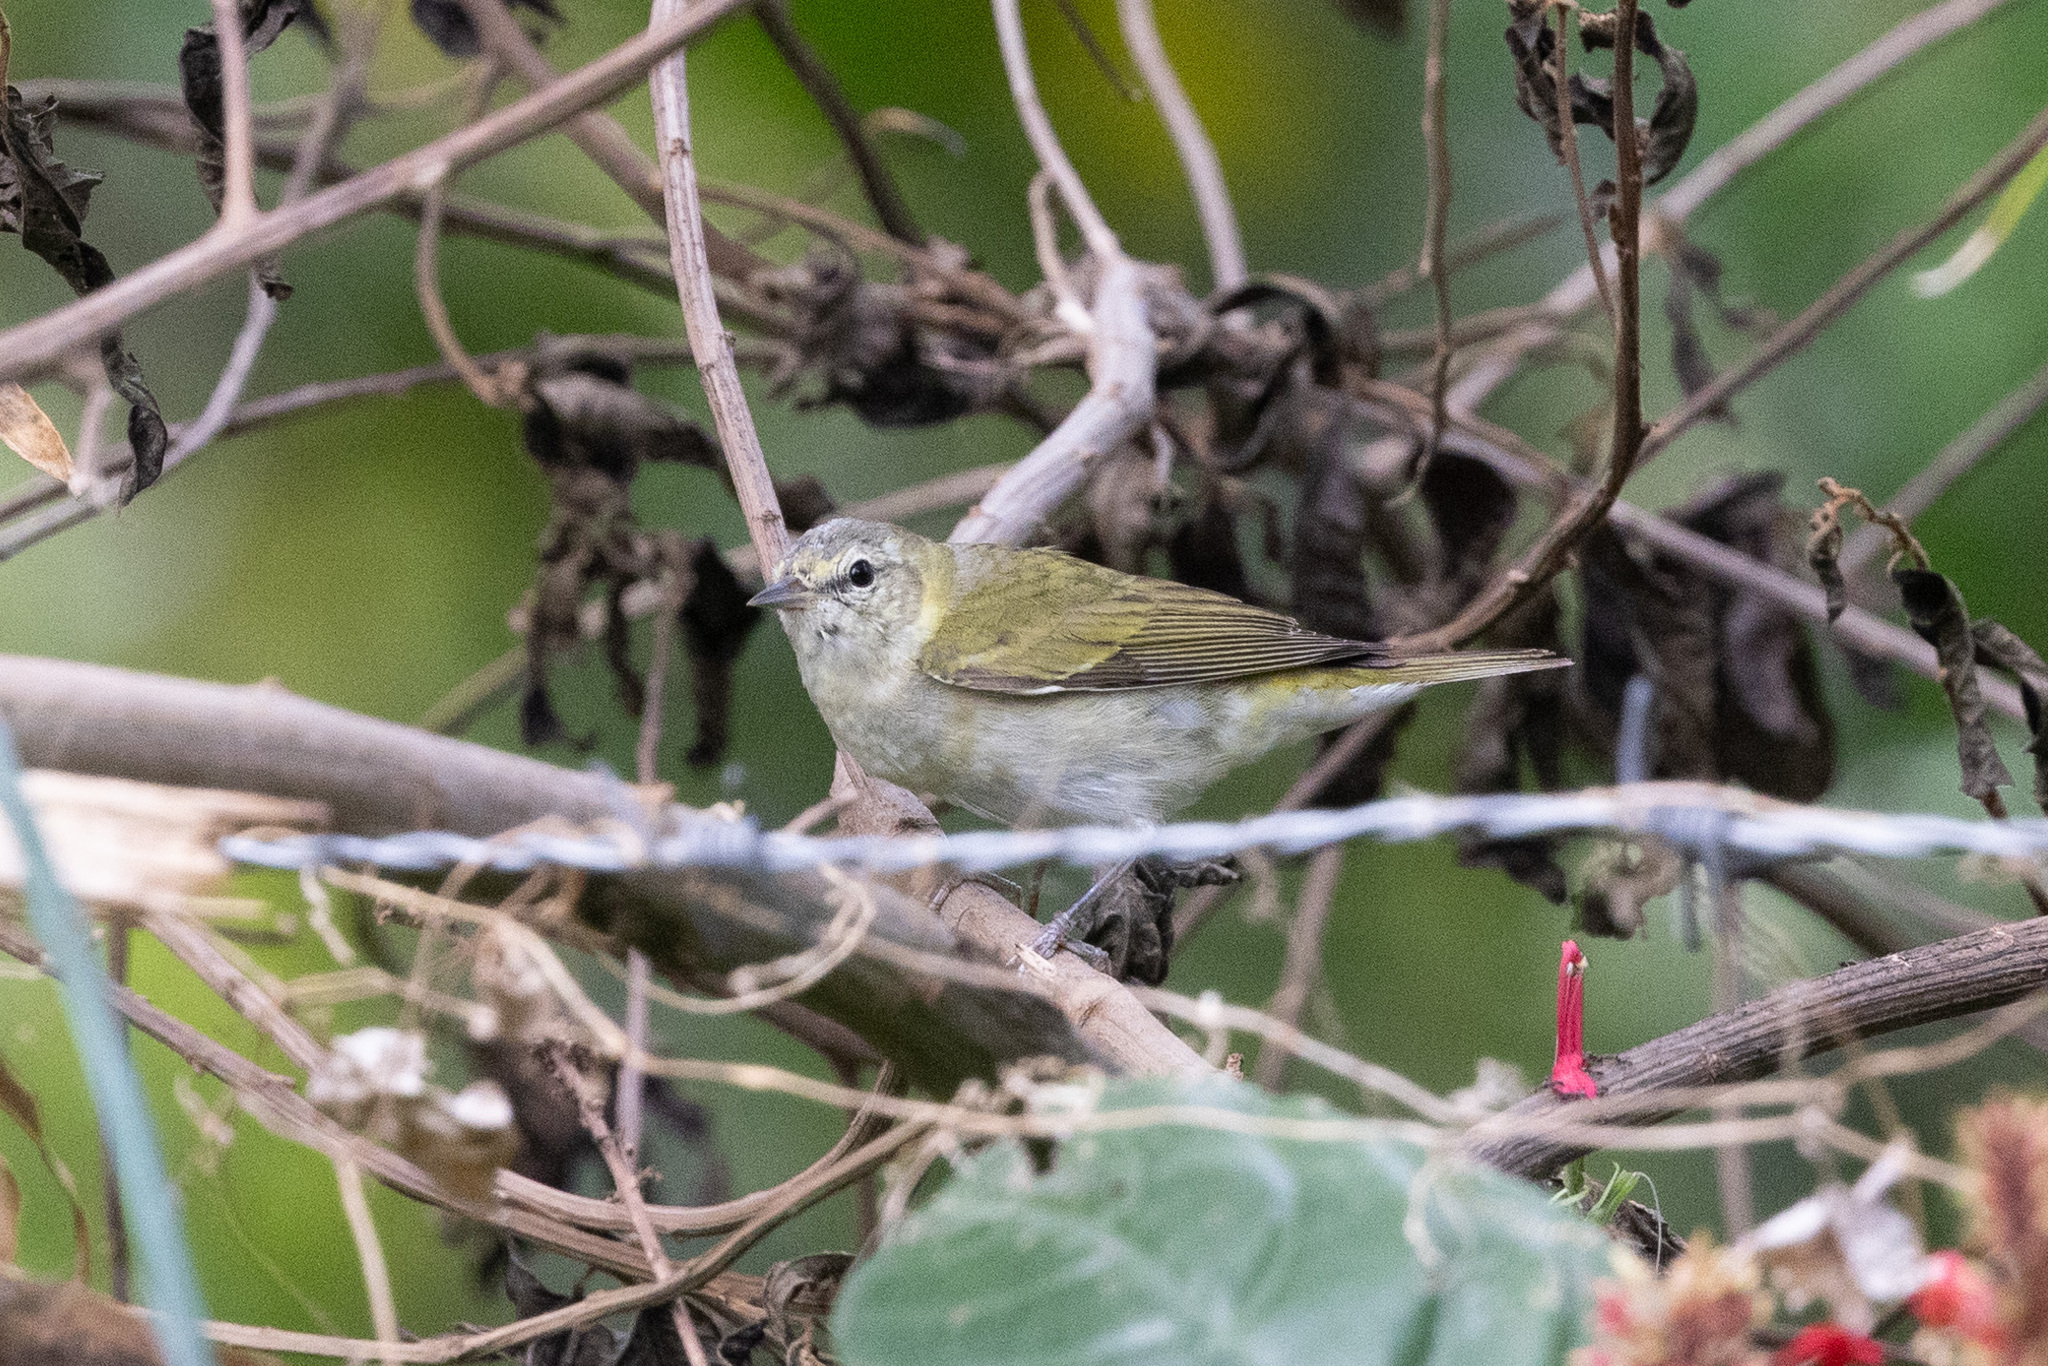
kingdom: Animalia
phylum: Chordata
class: Aves
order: Passeriformes
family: Parulidae
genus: Leiothlypis
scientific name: Leiothlypis peregrina
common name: Tennessee warbler
